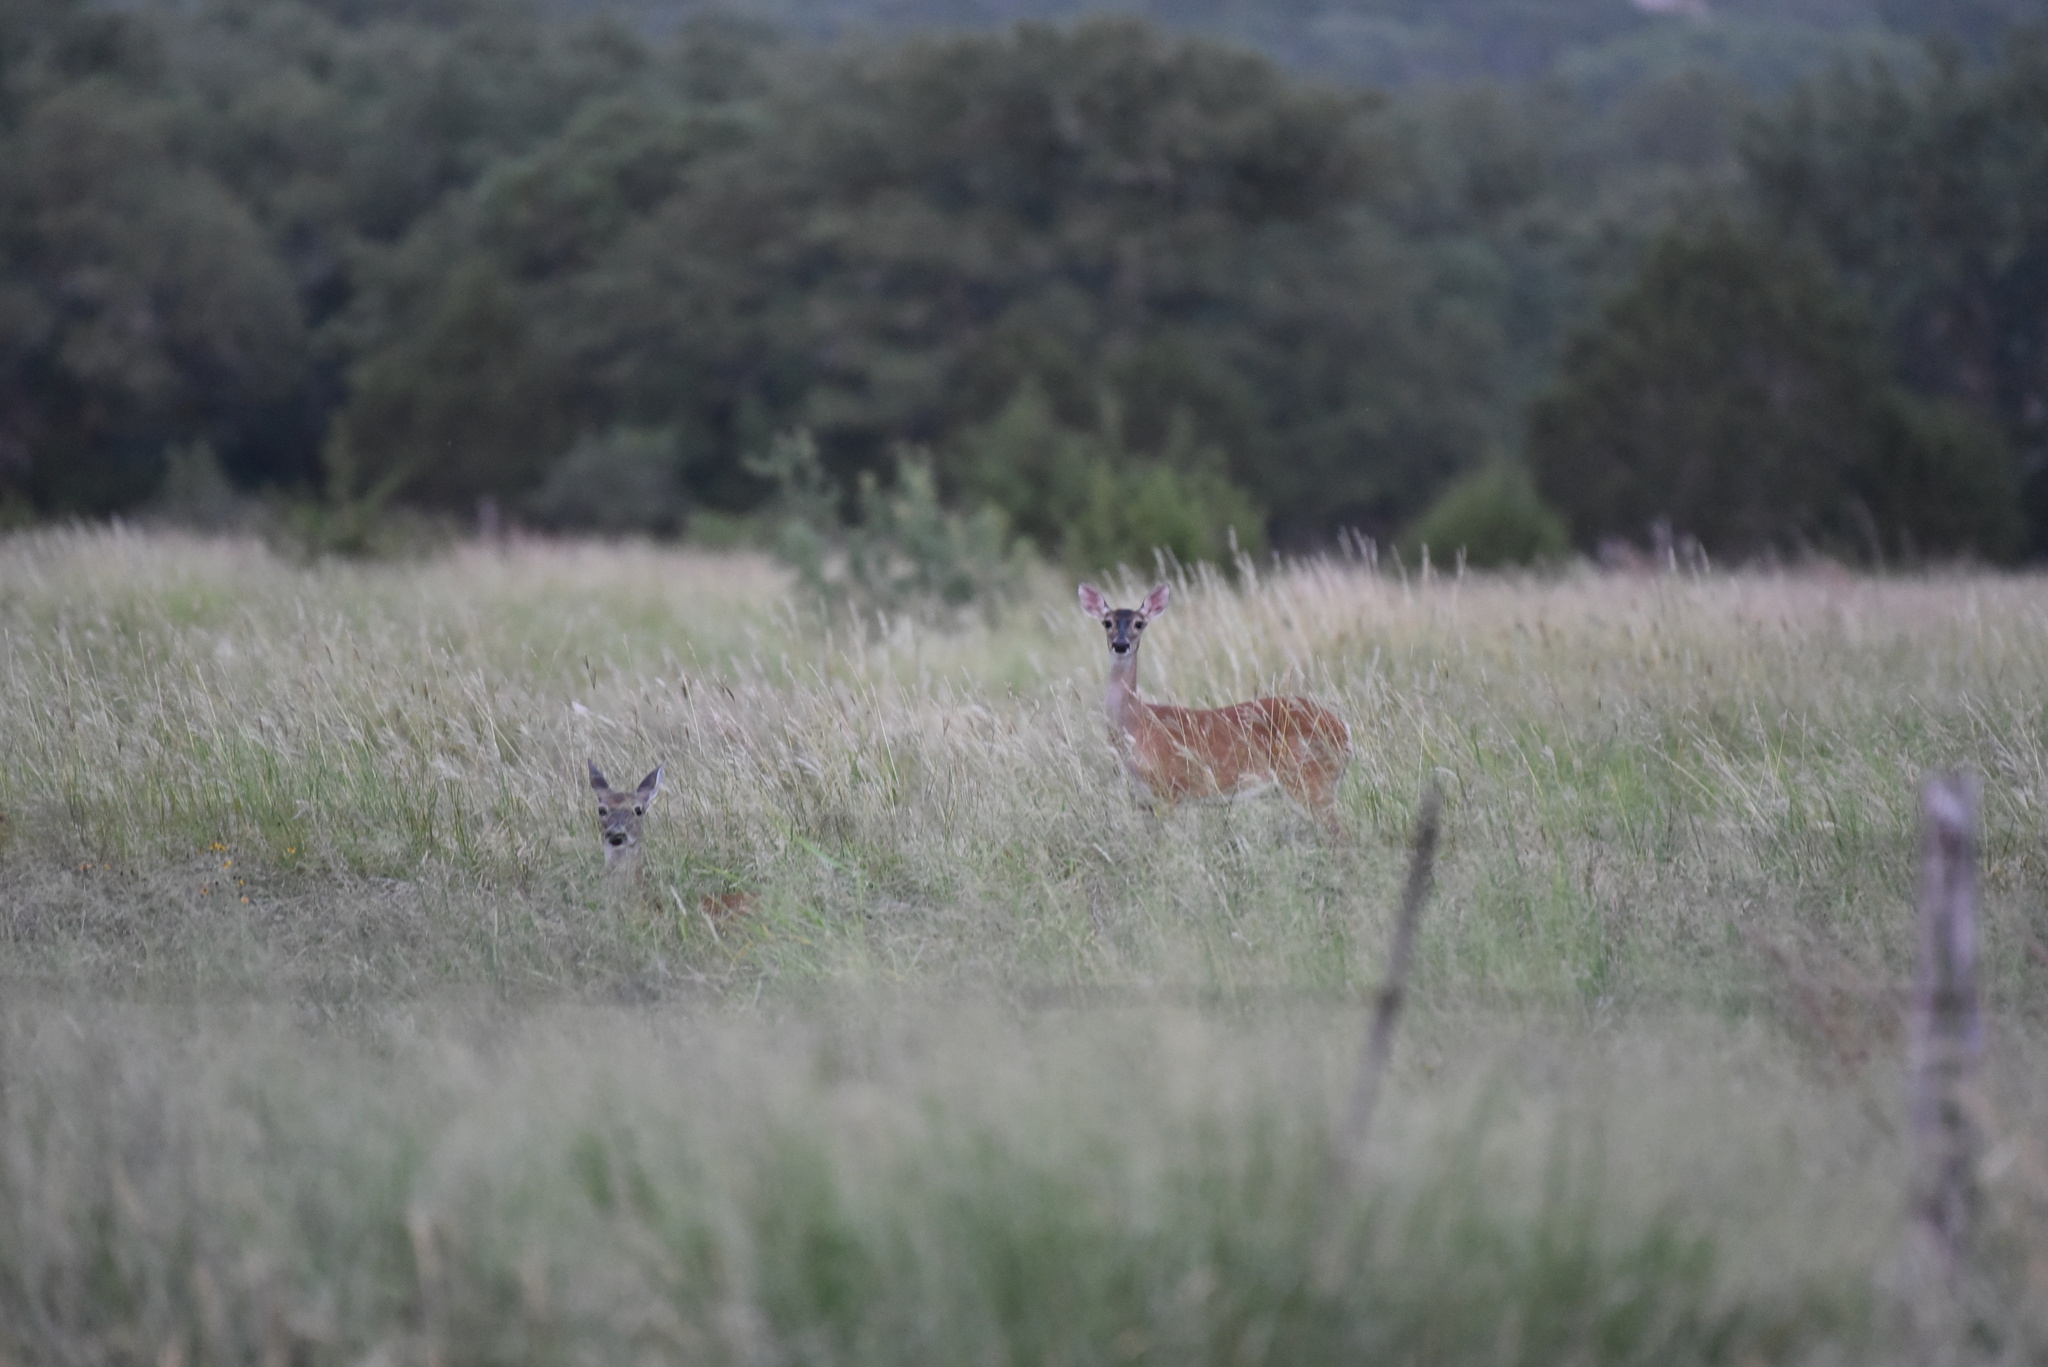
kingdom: Animalia
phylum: Chordata
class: Mammalia
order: Artiodactyla
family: Cervidae
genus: Odocoileus
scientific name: Odocoileus virginianus
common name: White-tailed deer
